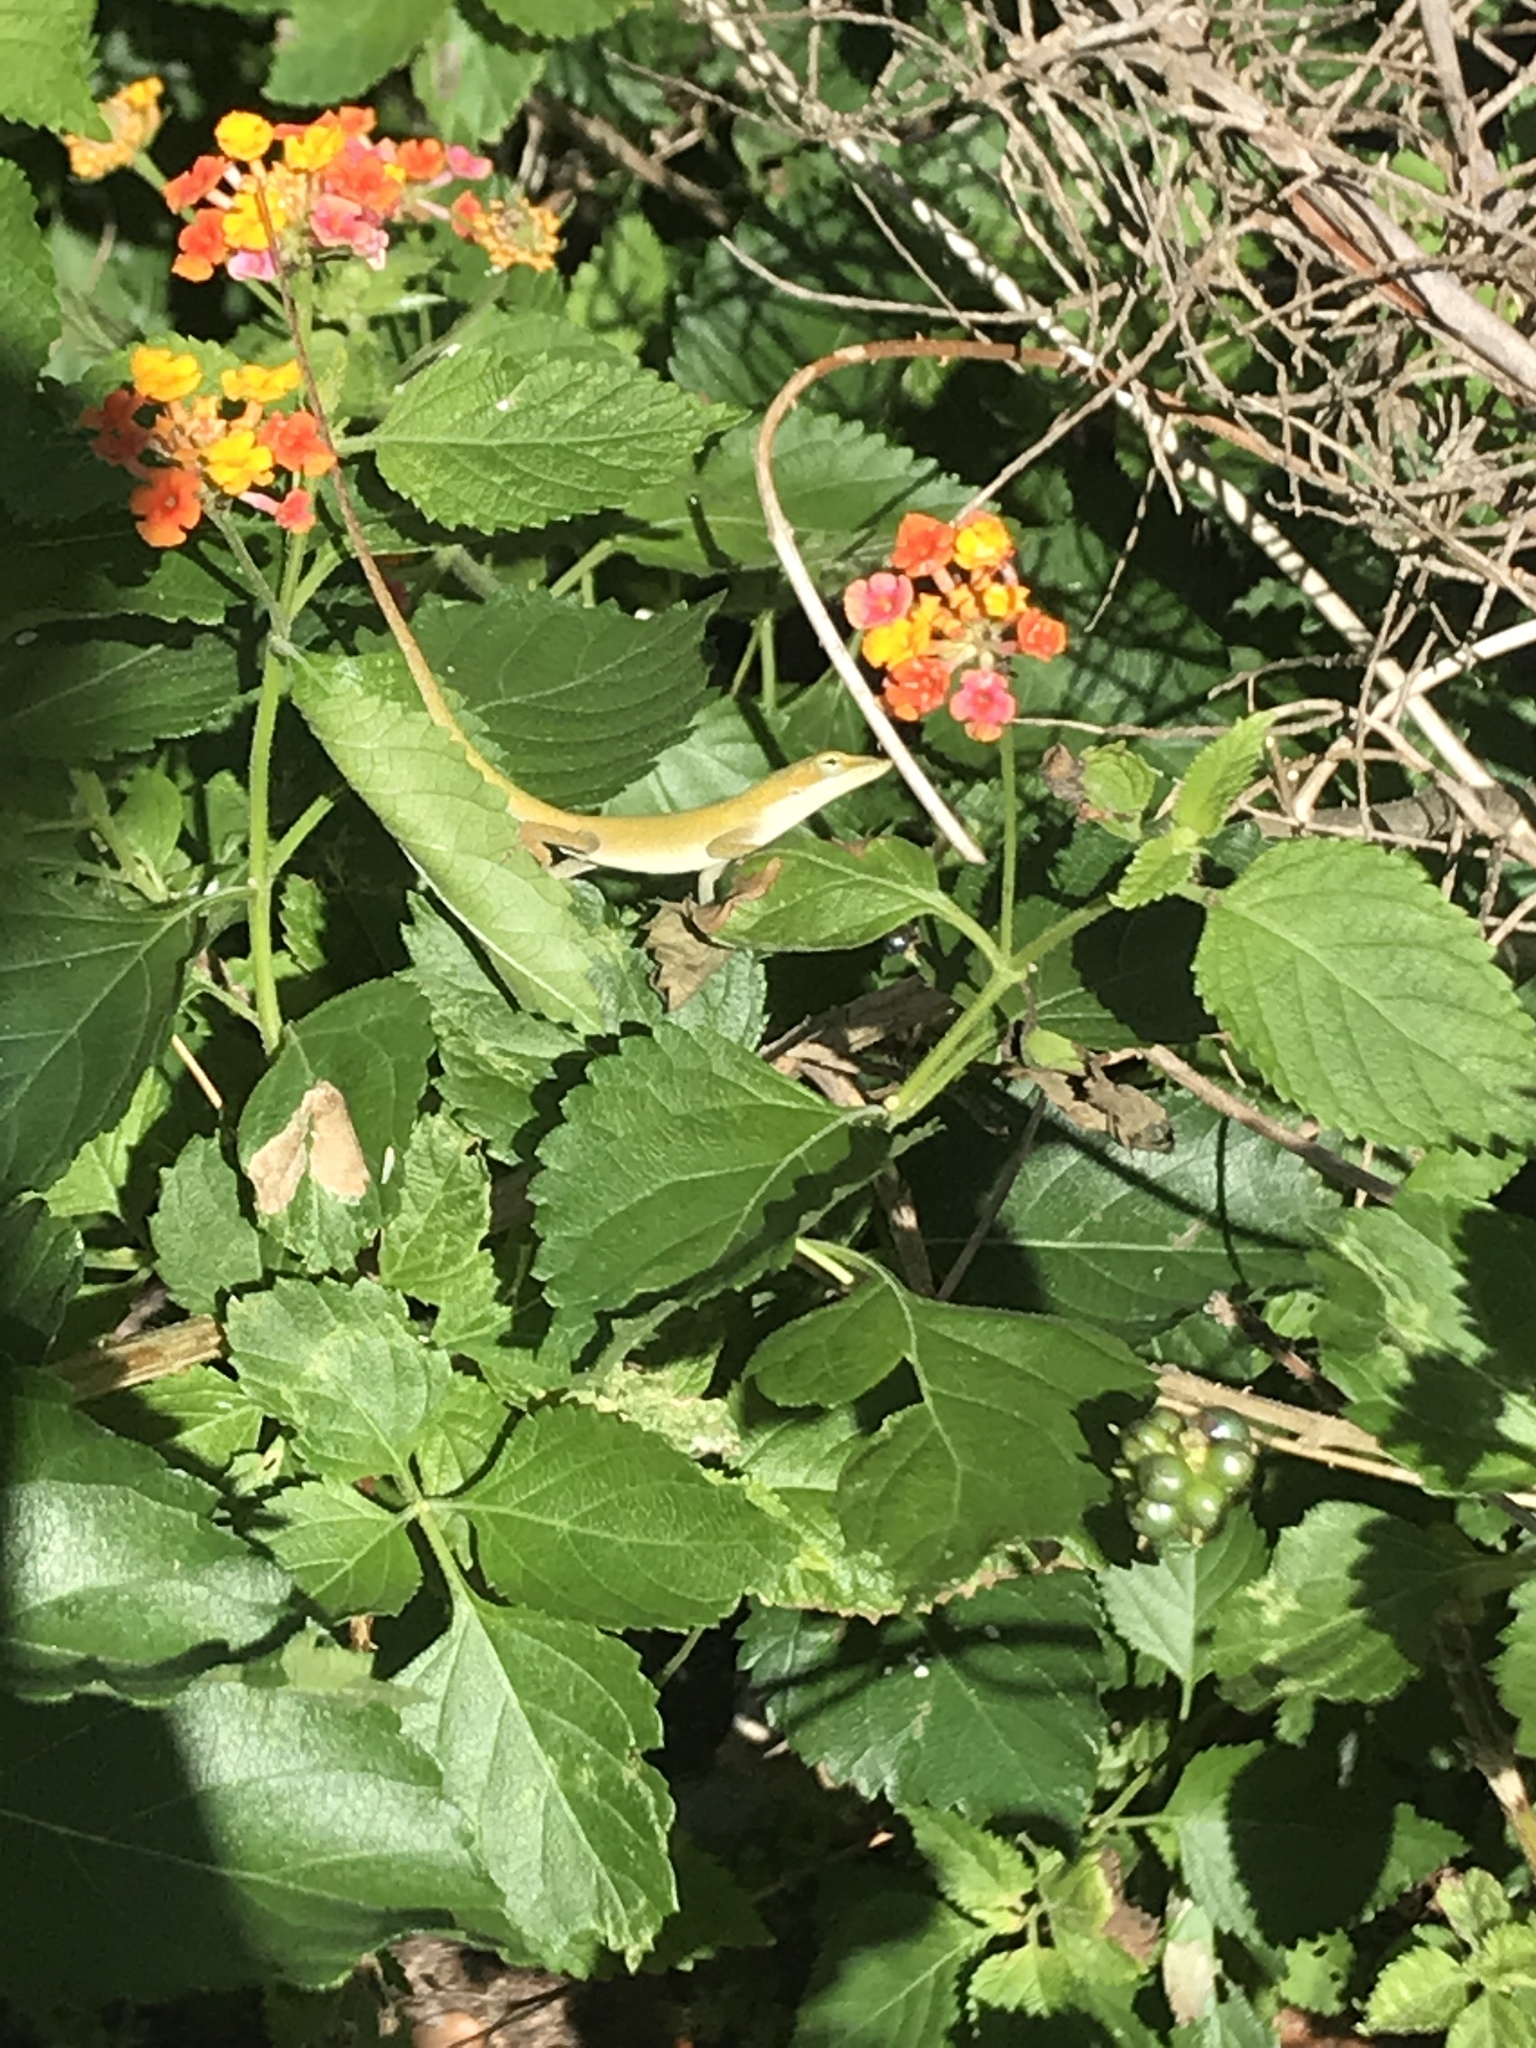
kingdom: Animalia
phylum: Chordata
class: Squamata
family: Dactyloidae
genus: Anolis
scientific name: Anolis carolinensis
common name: Green anole
